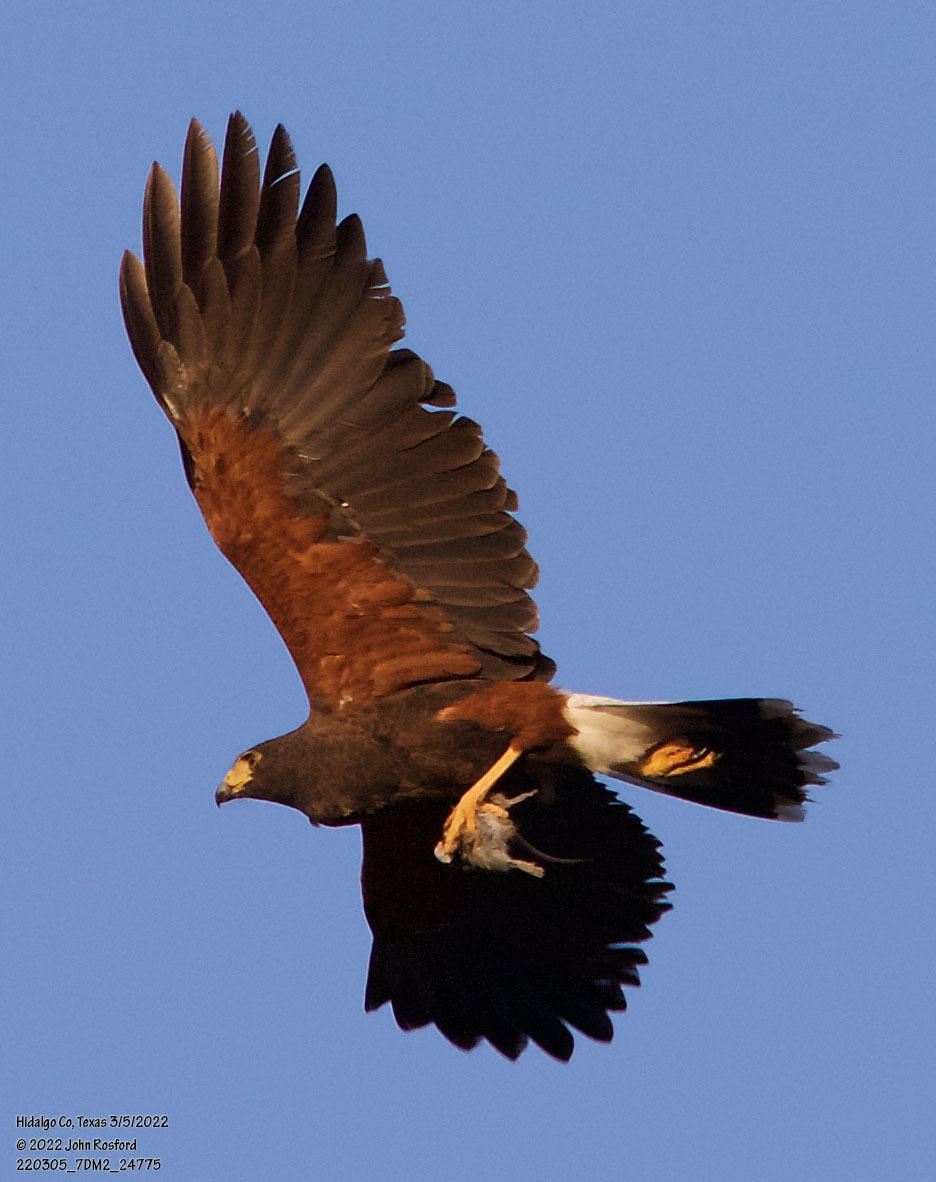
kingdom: Animalia
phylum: Chordata
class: Aves
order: Accipitriformes
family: Accipitridae
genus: Parabuteo
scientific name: Parabuteo unicinctus
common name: Harris's hawk
